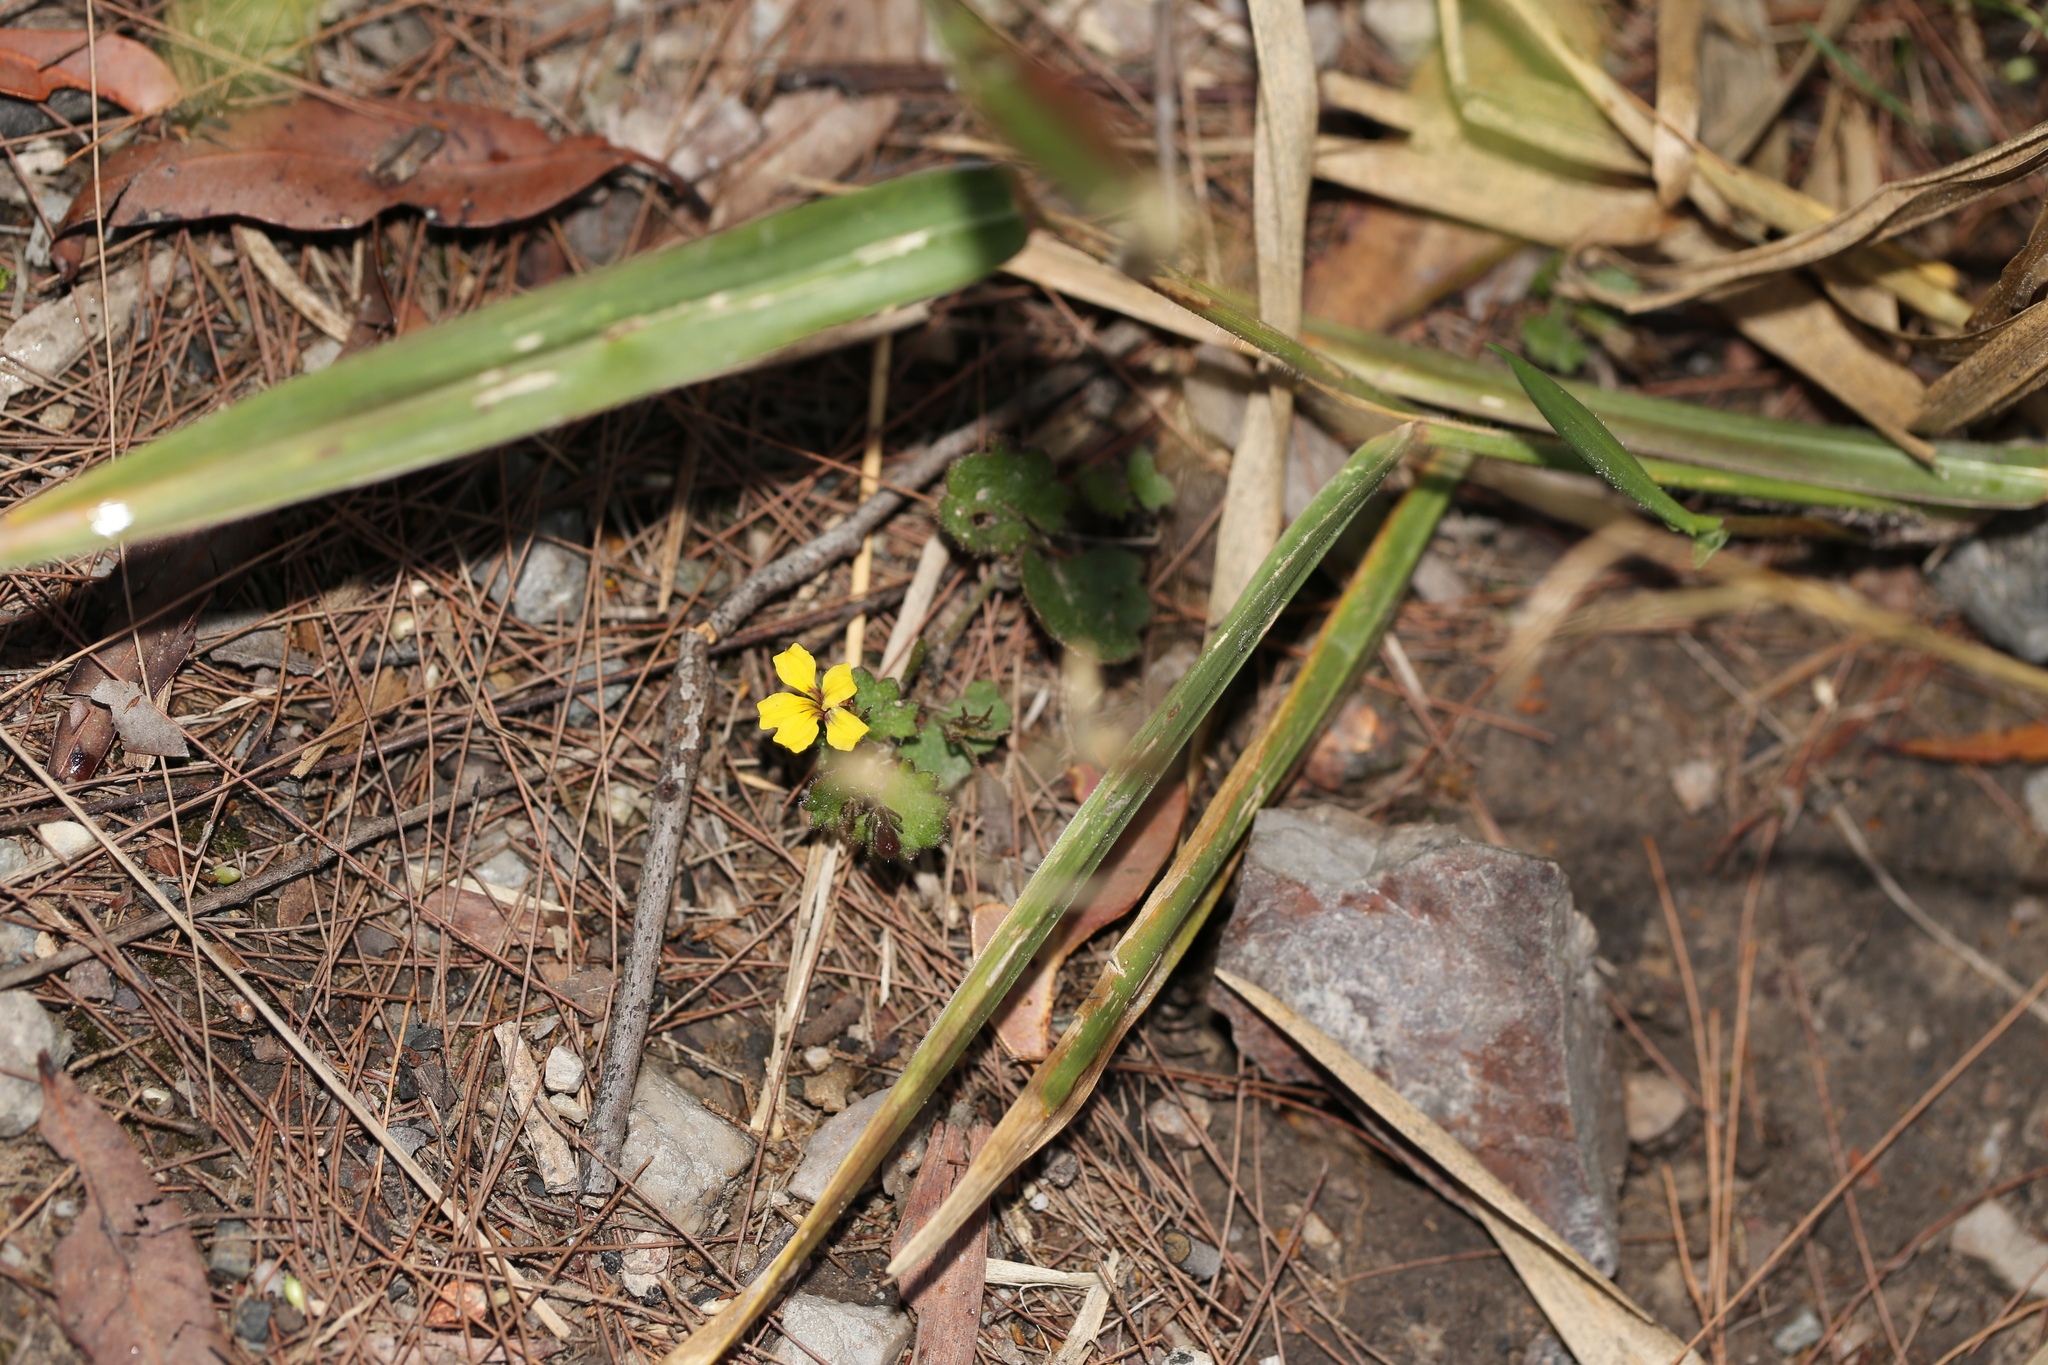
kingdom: Plantae
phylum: Tracheophyta
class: Magnoliopsida
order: Asterales
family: Goodeniaceae
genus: Goodenia
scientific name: Goodenia rotundifolia
